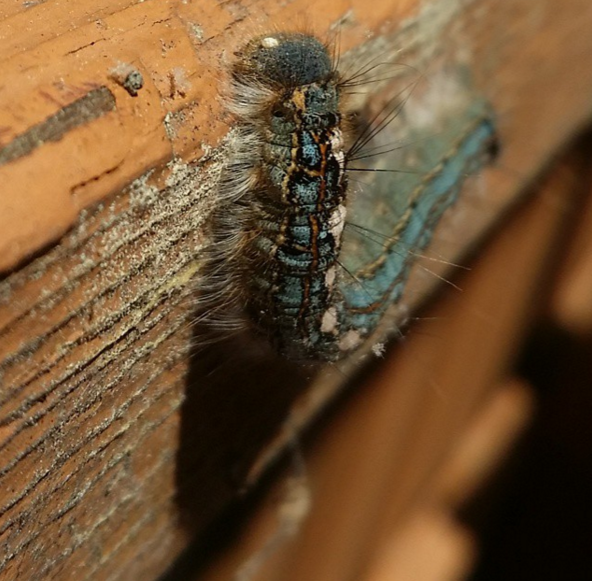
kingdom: Animalia
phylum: Arthropoda
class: Insecta
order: Lepidoptera
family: Lasiocampidae
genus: Malacosoma
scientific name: Malacosoma disstria
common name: Forest tent caterpillar
